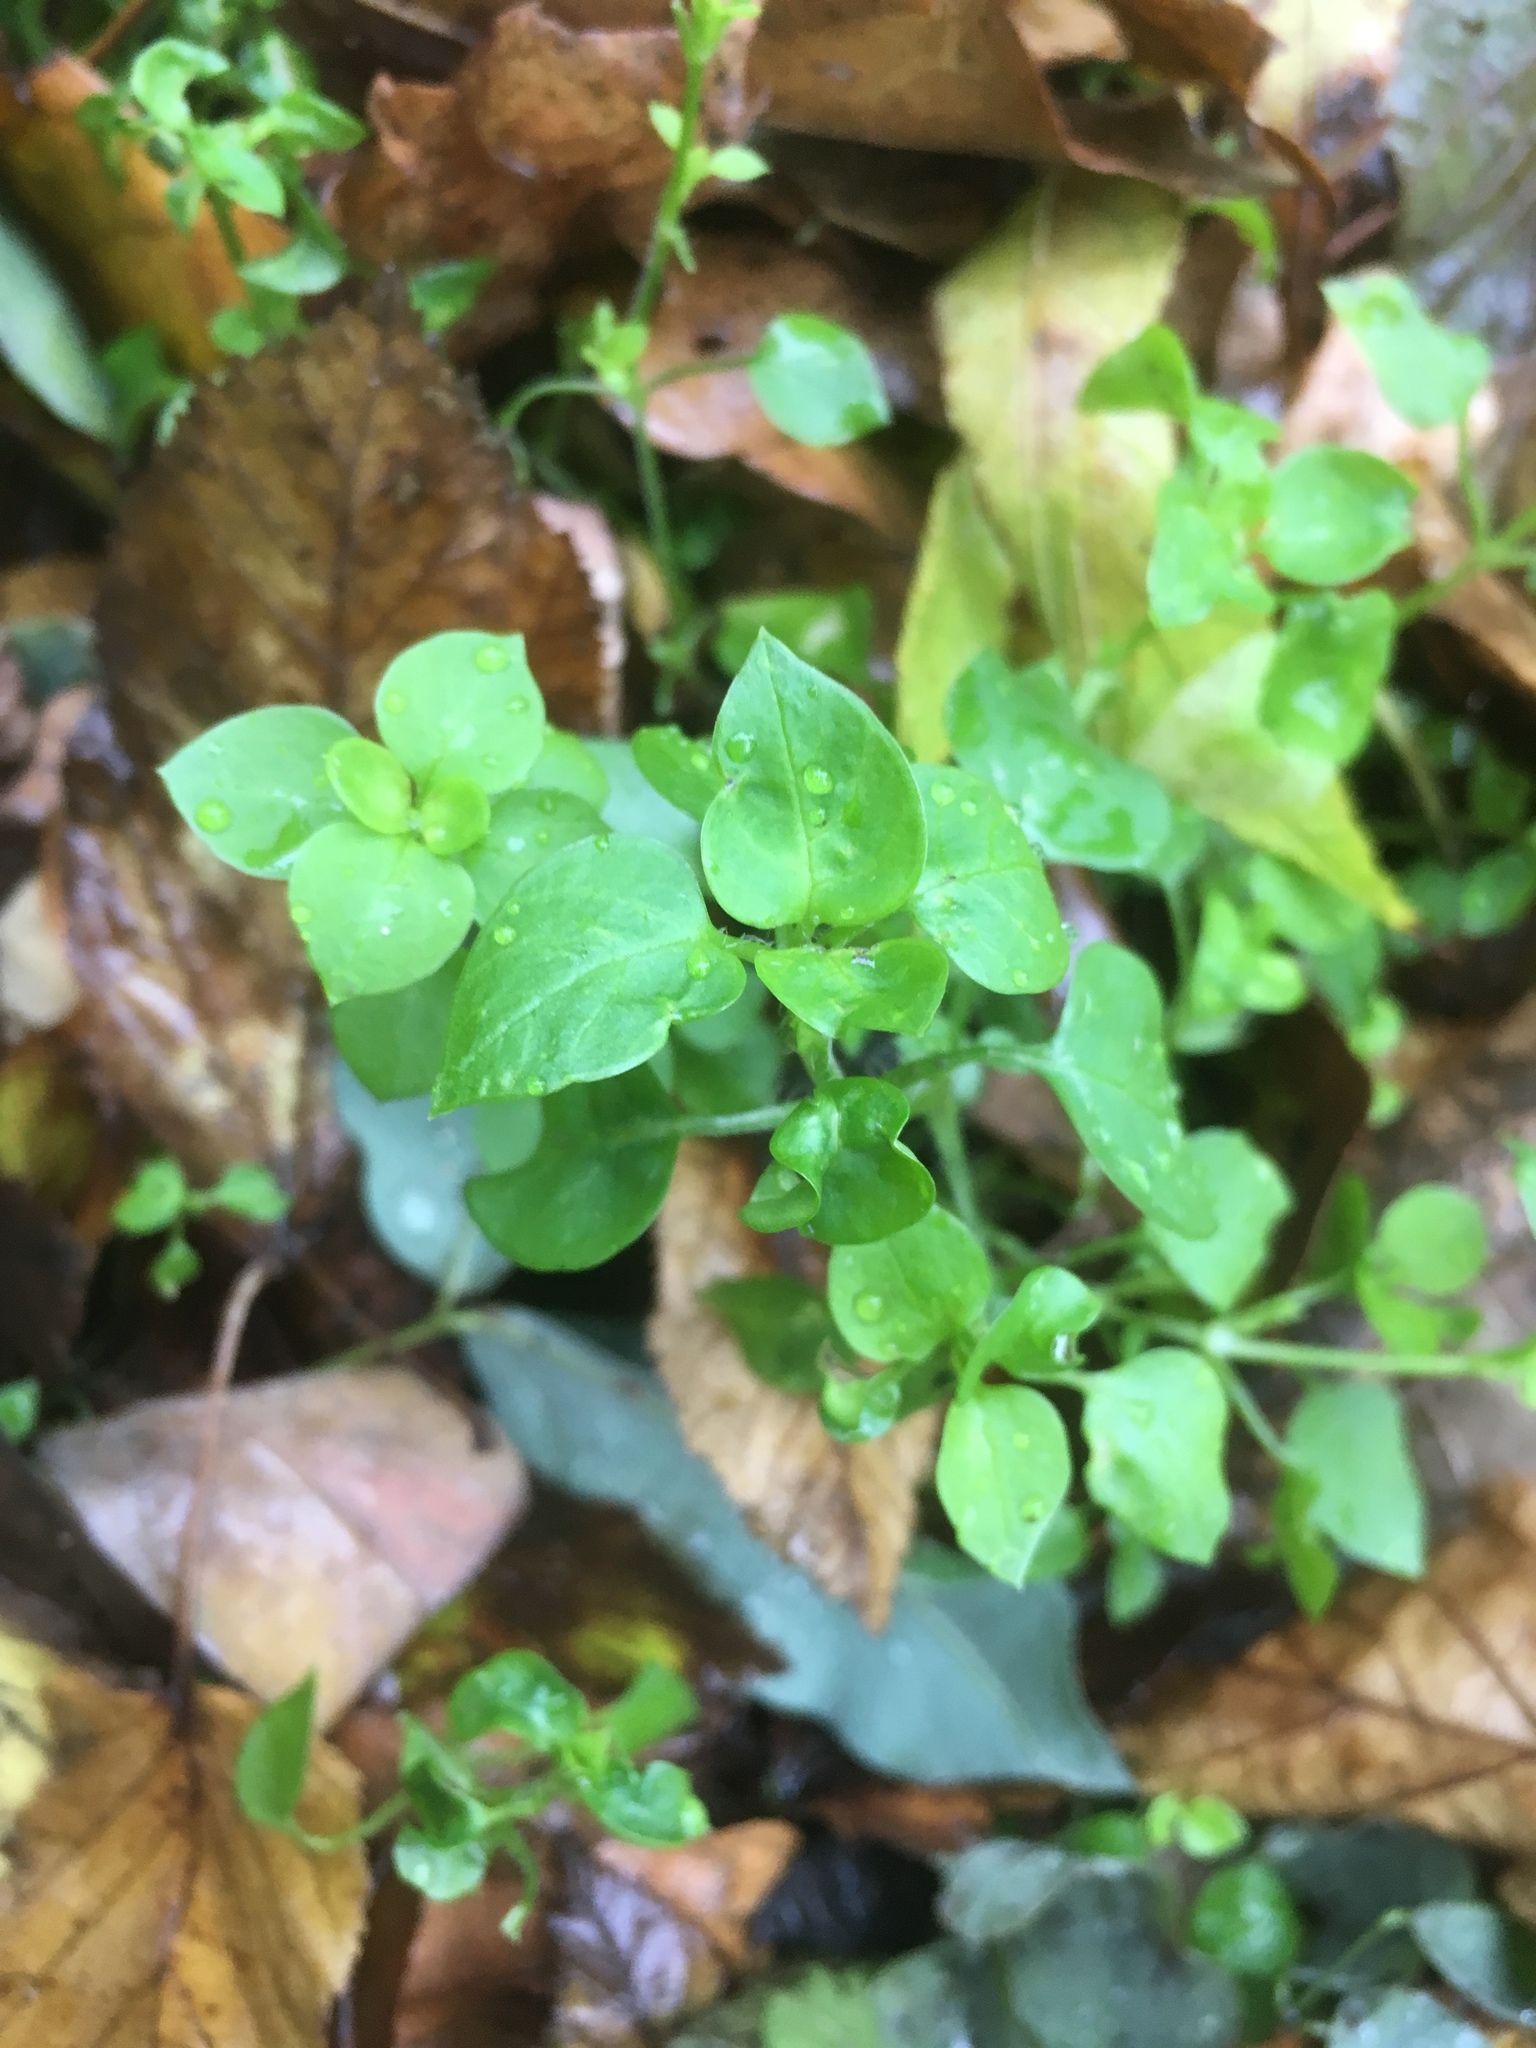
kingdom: Plantae
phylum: Tracheophyta
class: Magnoliopsida
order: Caryophyllales
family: Caryophyllaceae
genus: Stellaria
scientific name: Stellaria media
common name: Common chickweed
